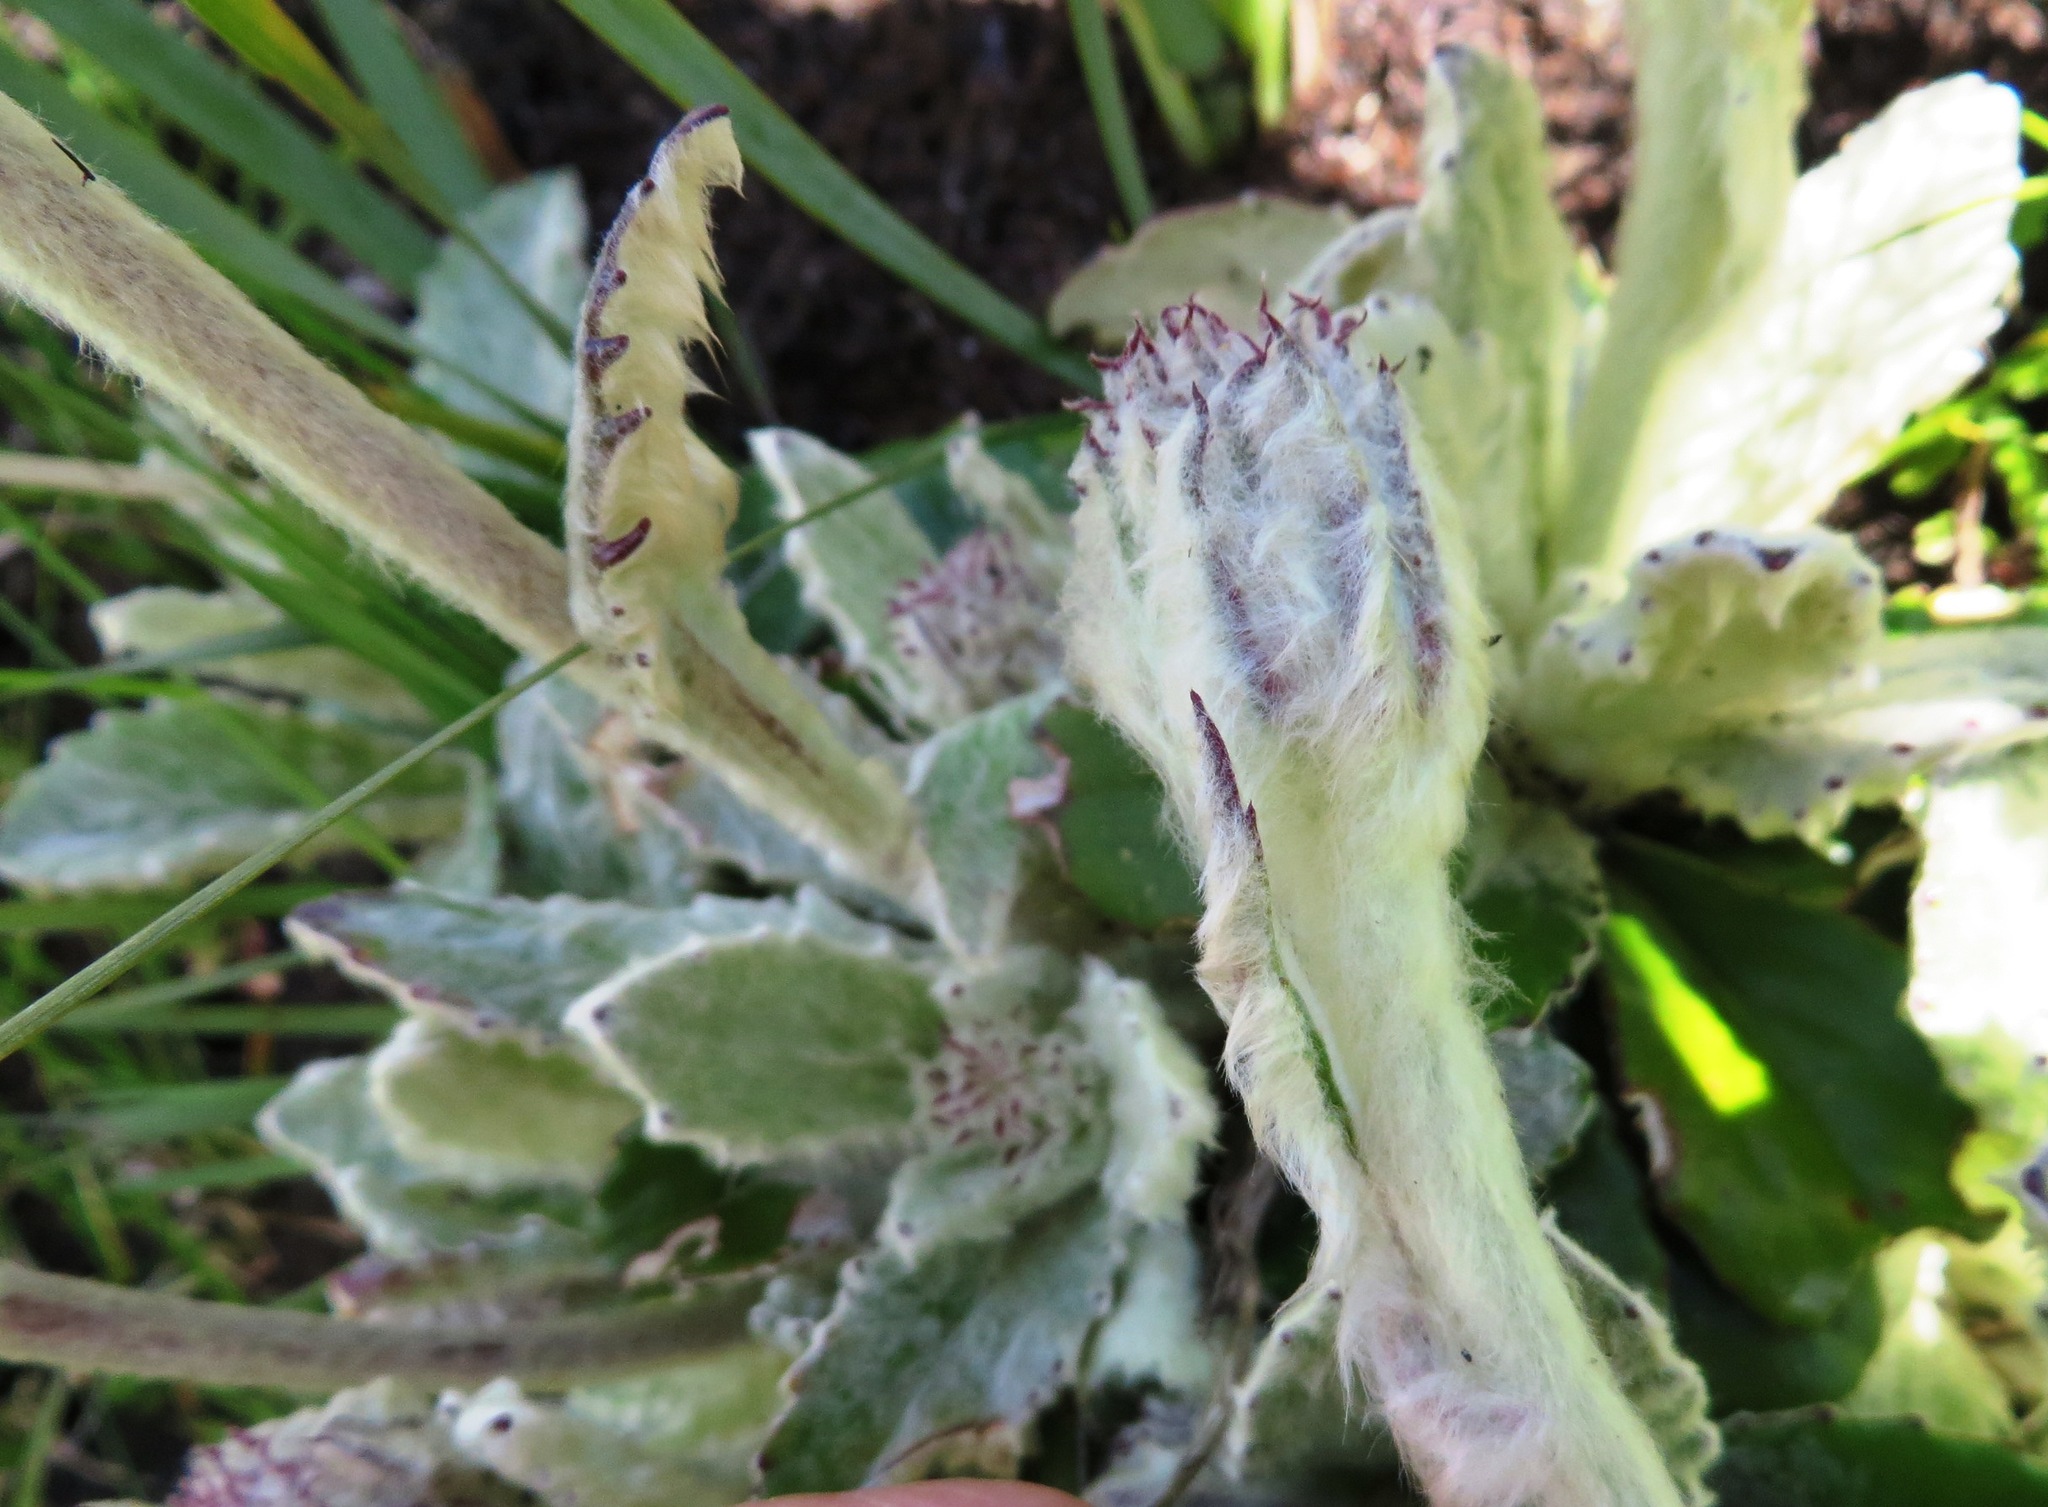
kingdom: Plantae
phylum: Tracheophyta
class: Magnoliopsida
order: Asterales
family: Asteraceae
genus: Mairia
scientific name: Mairia robusta
